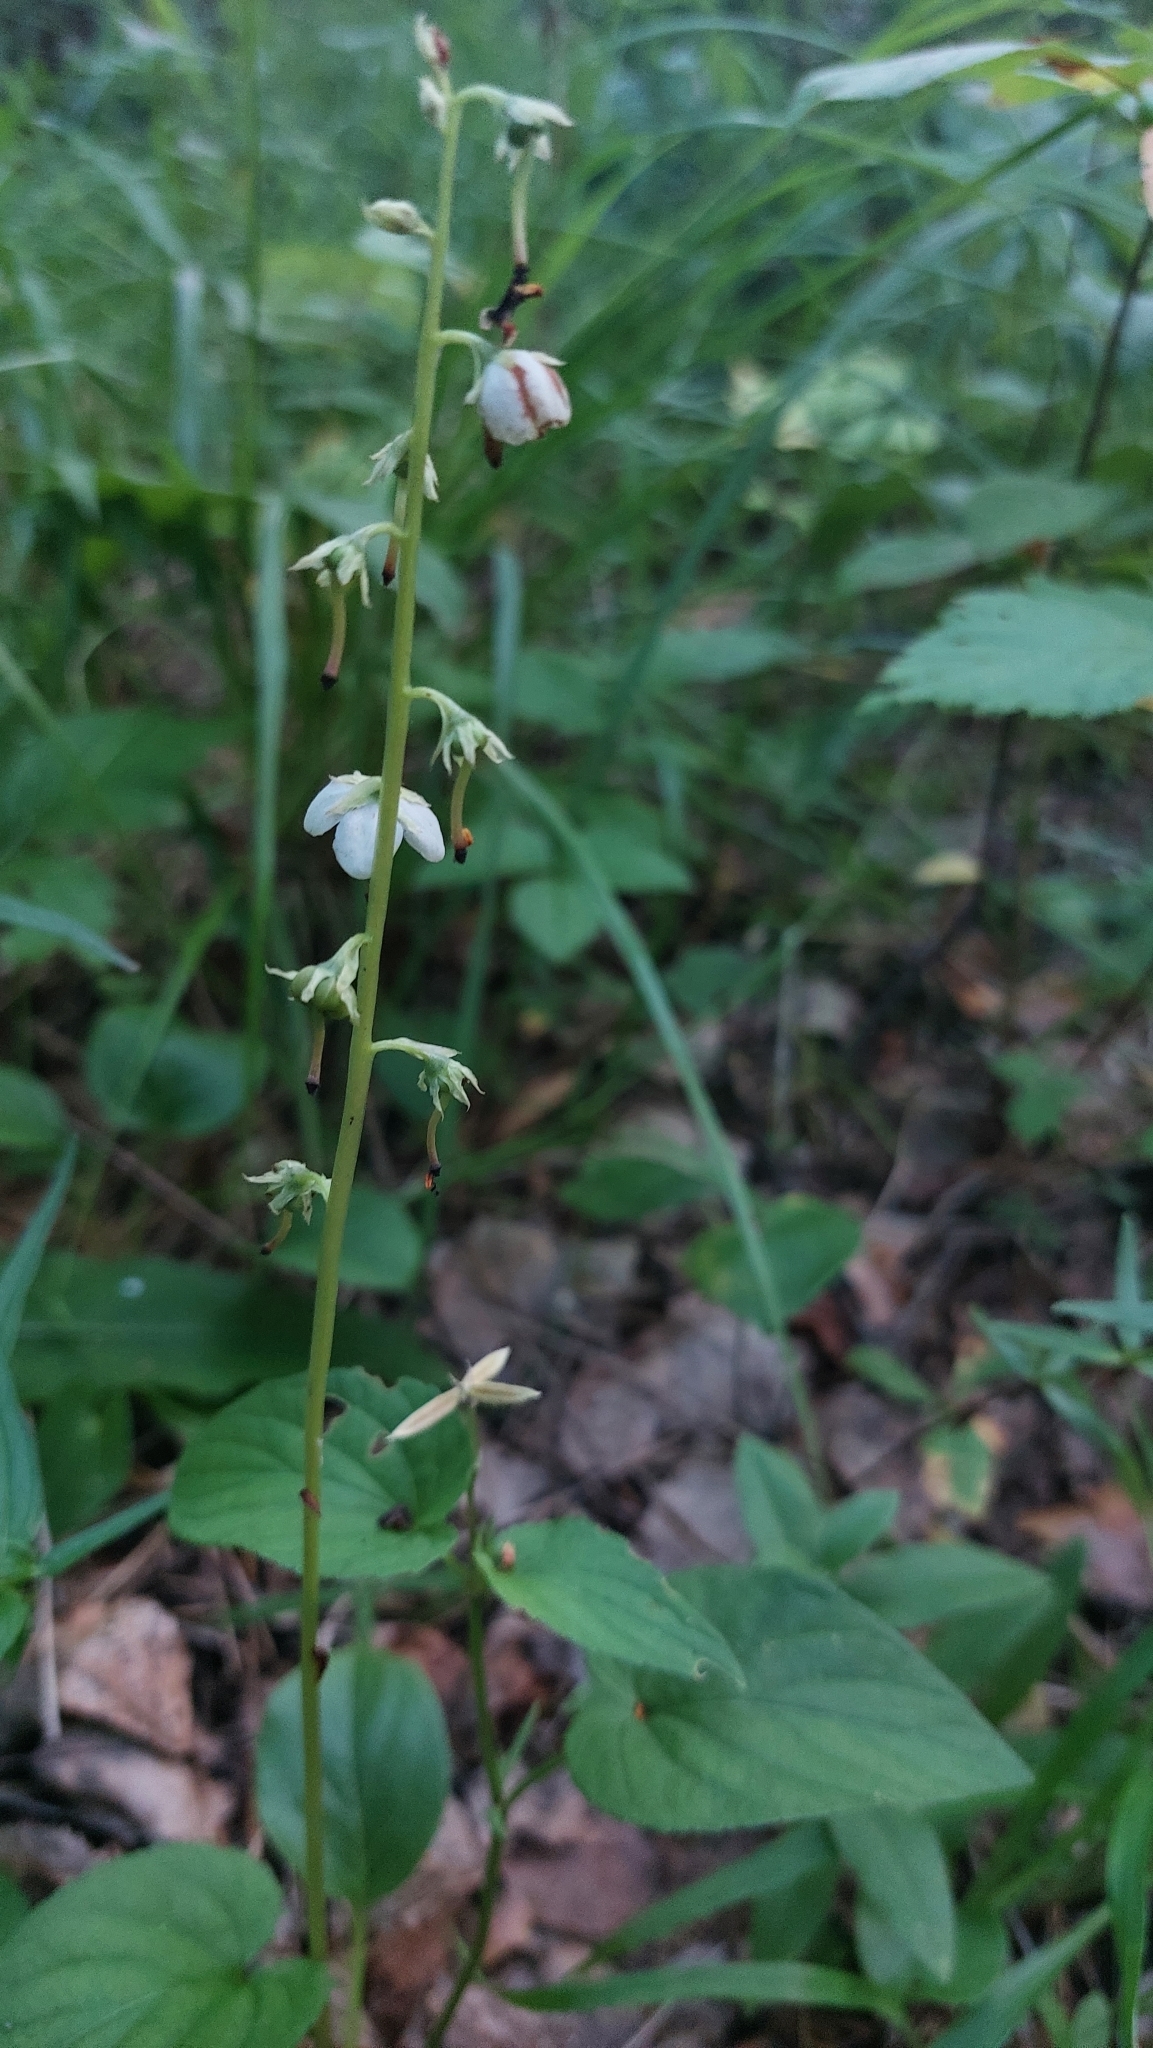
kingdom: Plantae
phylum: Tracheophyta
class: Magnoliopsida
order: Ericales
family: Ericaceae
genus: Pyrola
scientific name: Pyrola rotundifolia
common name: Round-leaved wintergreen
